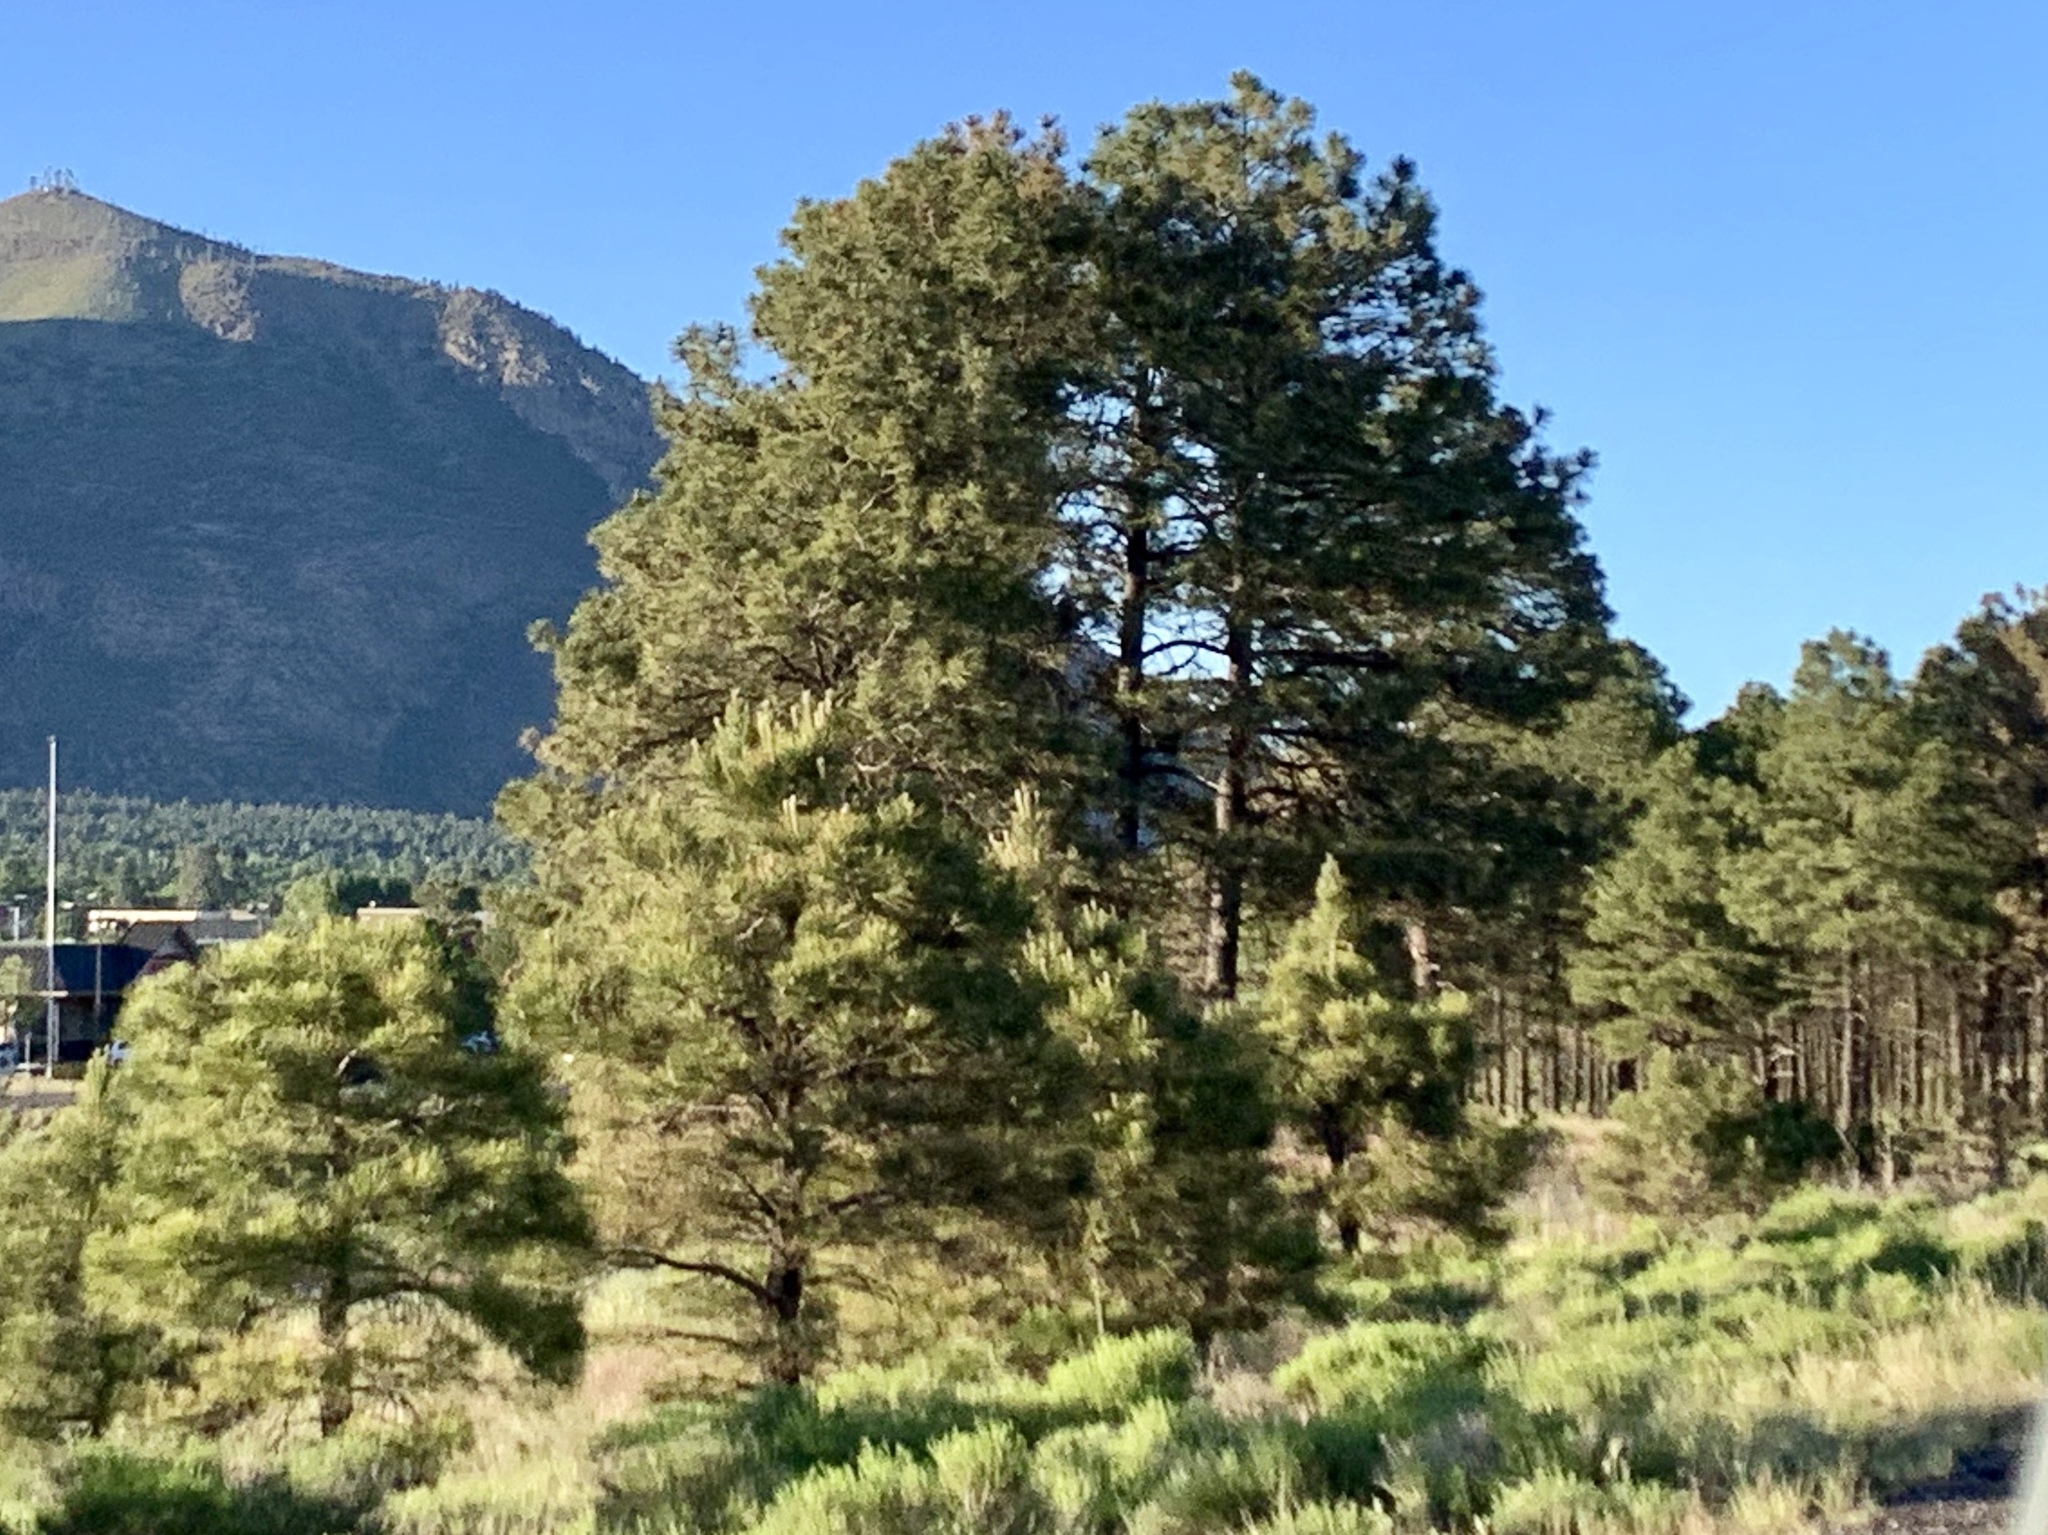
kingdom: Plantae
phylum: Tracheophyta
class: Pinopsida
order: Pinales
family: Pinaceae
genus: Pinus
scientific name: Pinus ponderosa
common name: Western yellow-pine
